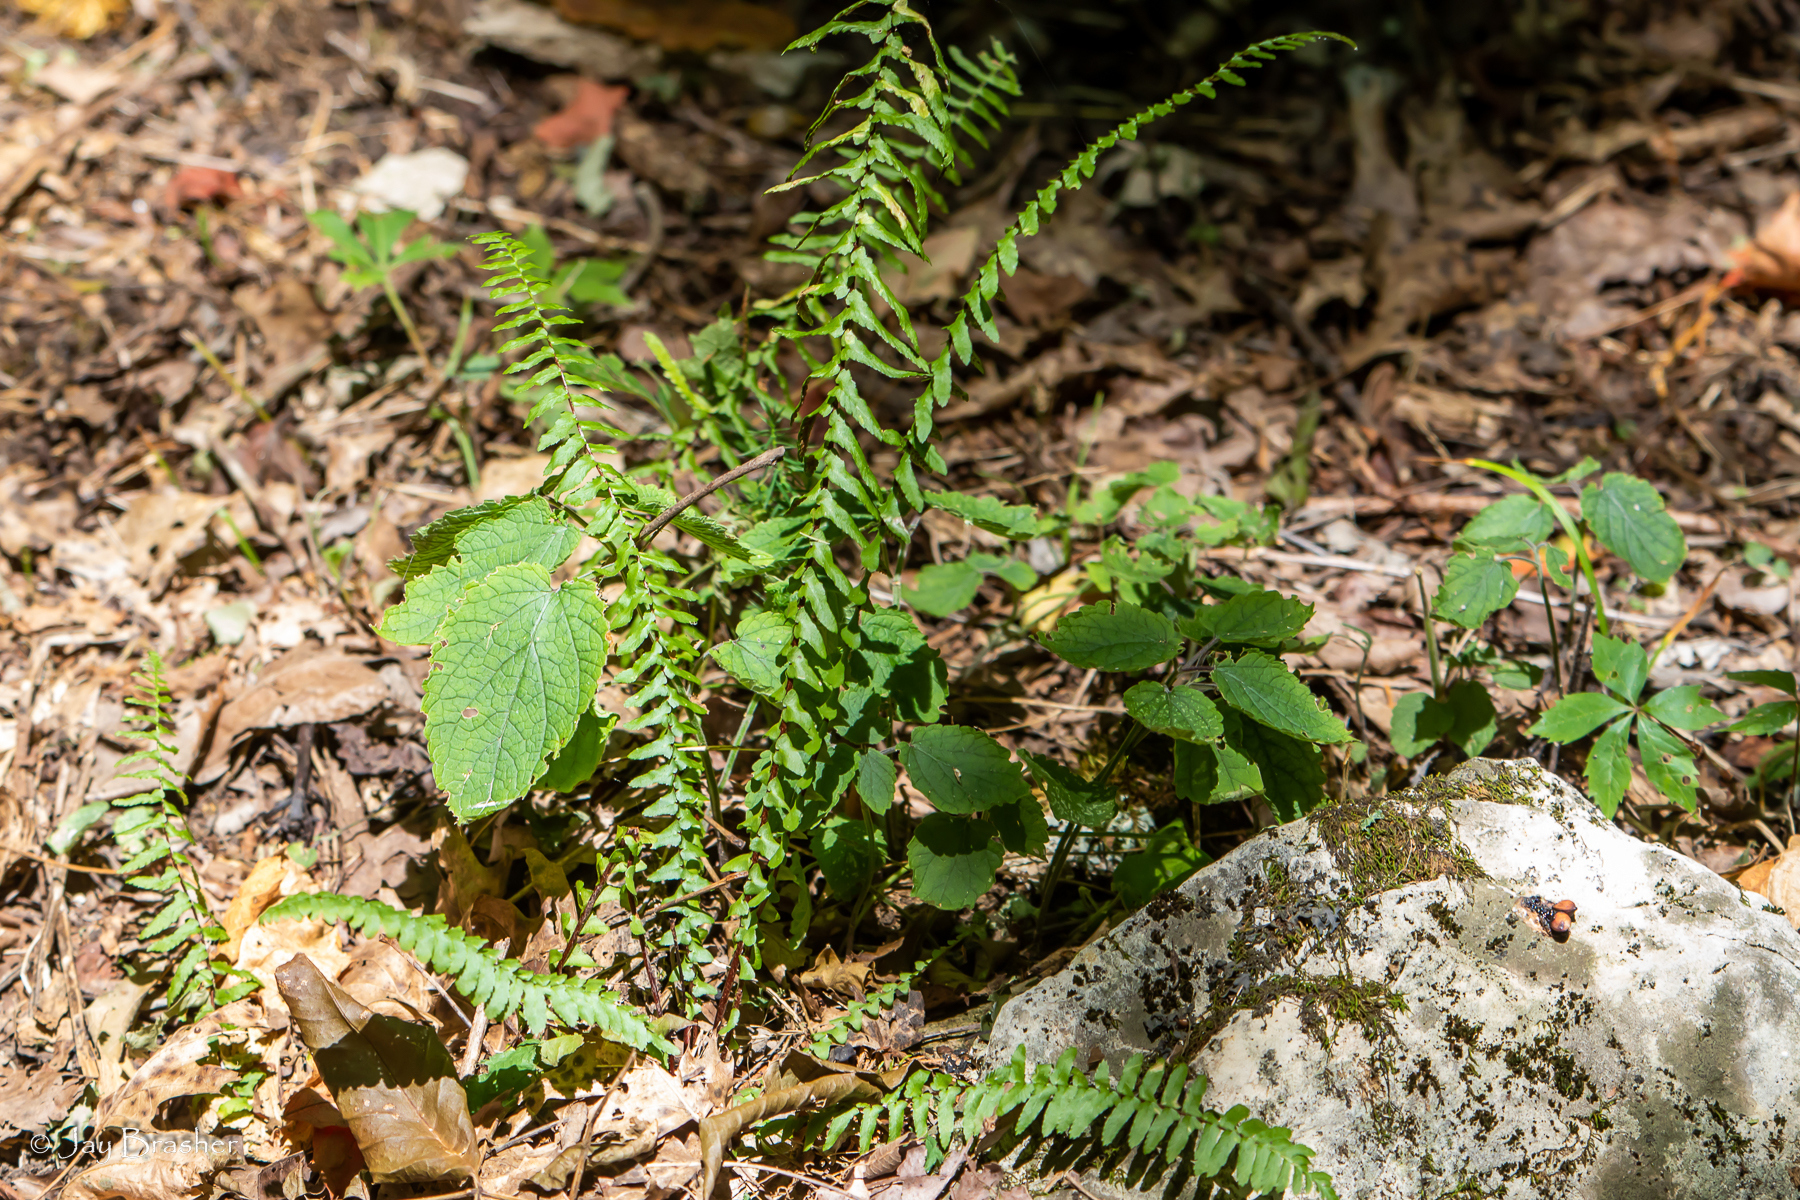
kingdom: Plantae
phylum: Tracheophyta
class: Polypodiopsida
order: Polypodiales
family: Aspleniaceae
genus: Asplenium
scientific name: Asplenium platyneuron
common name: Ebony spleenwort
